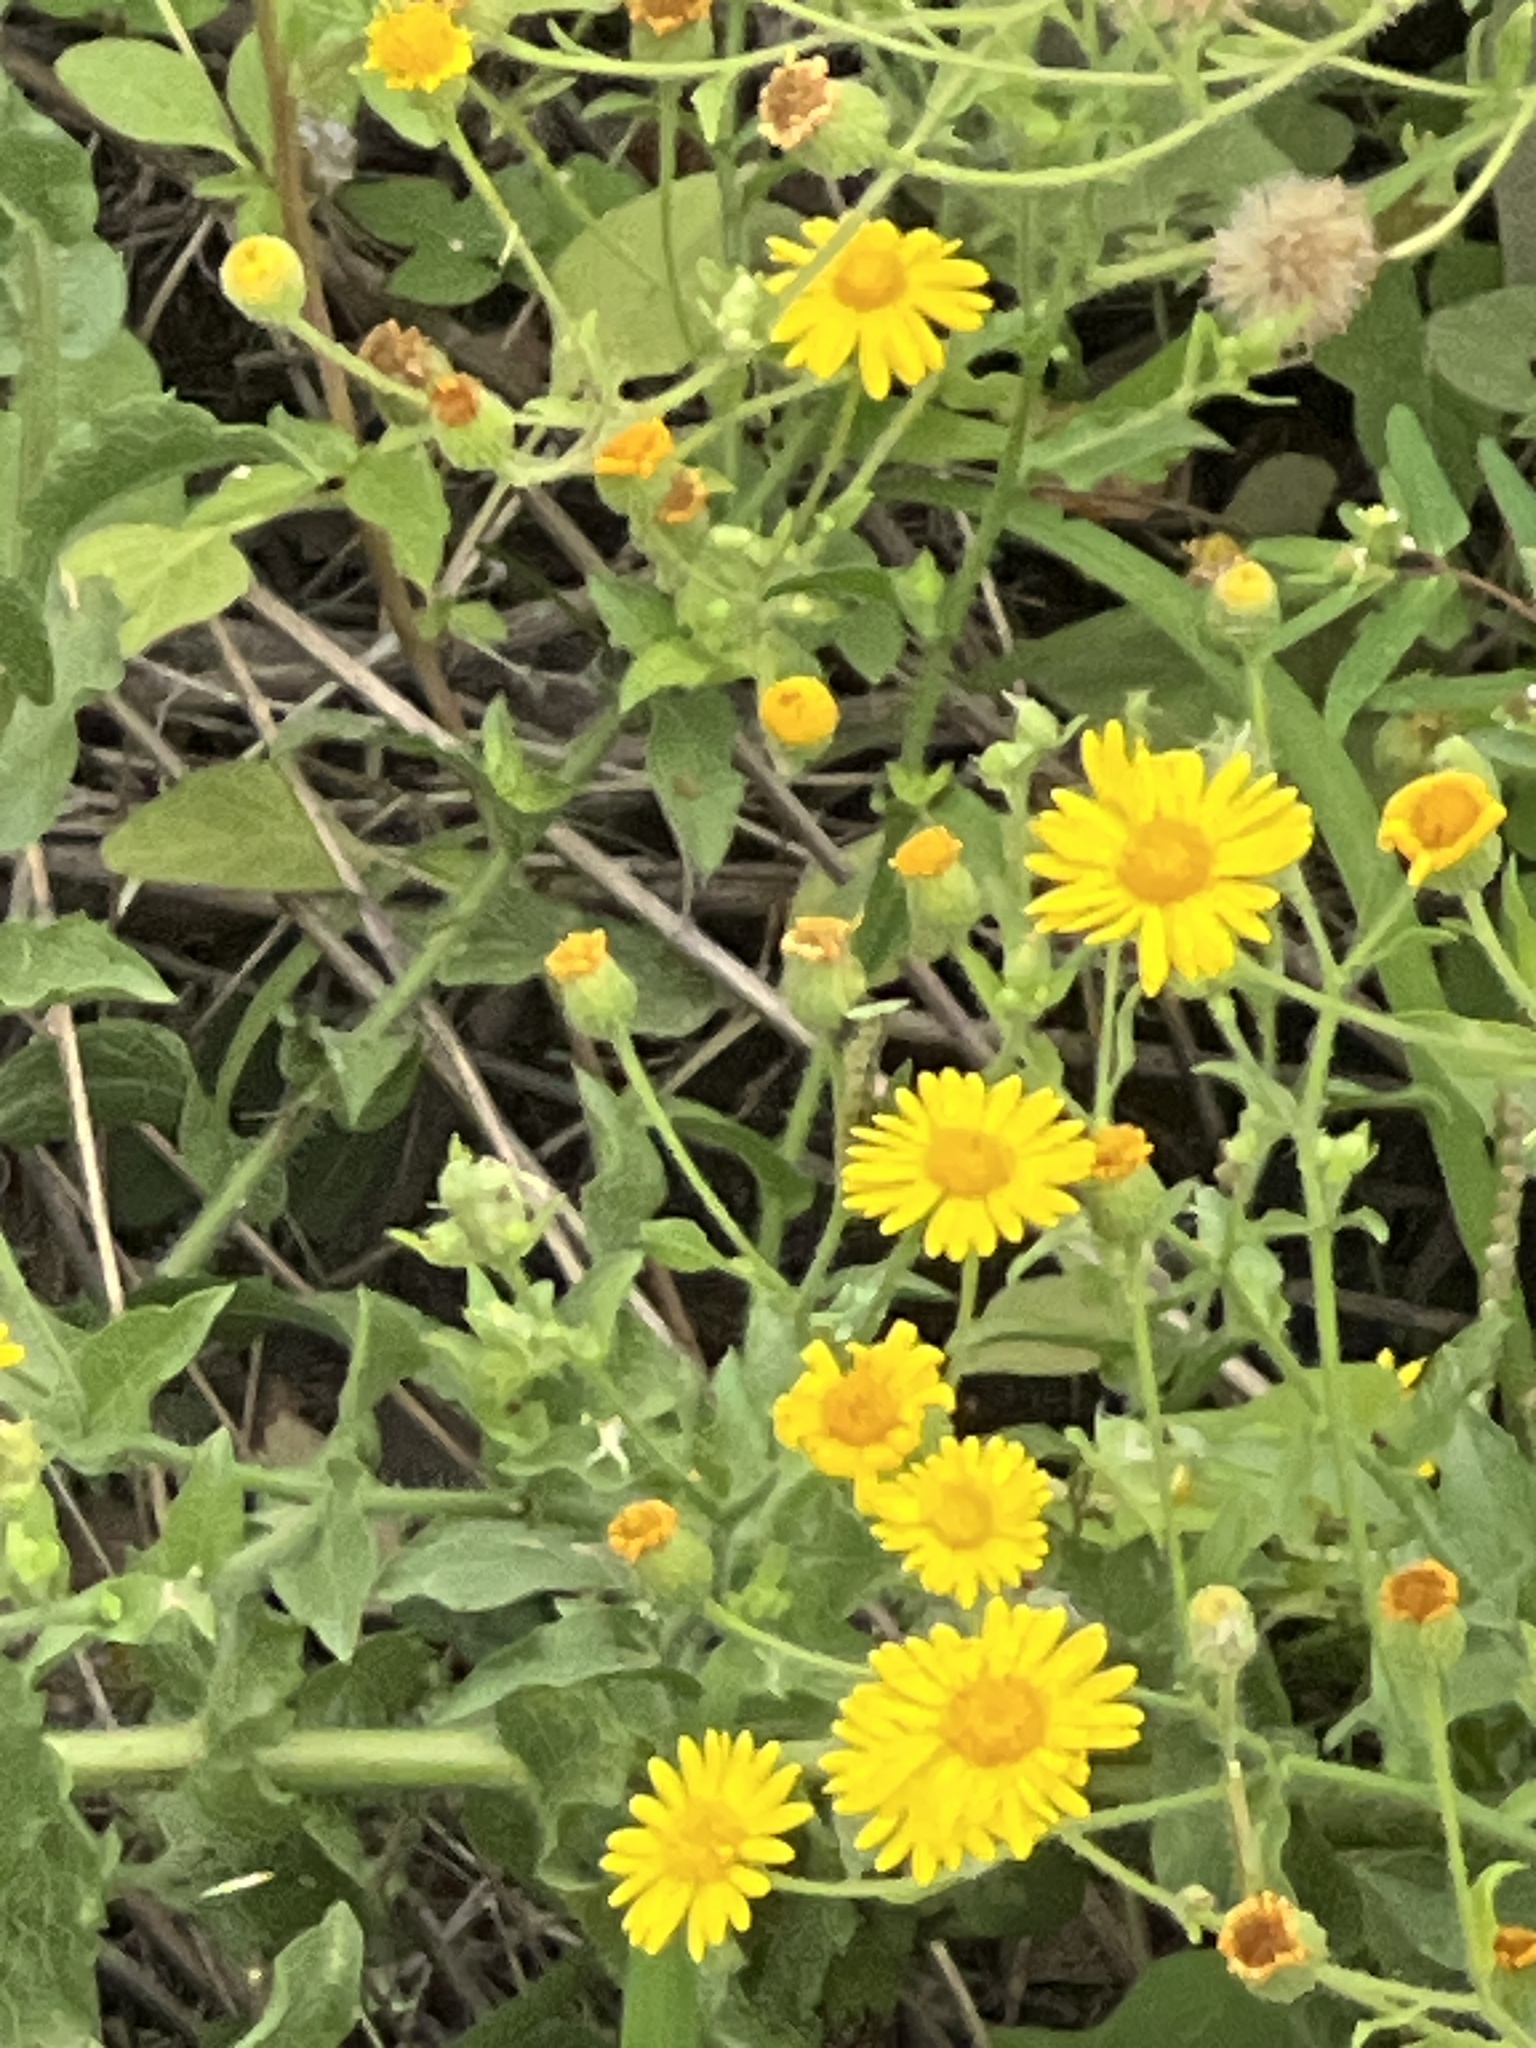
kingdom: Plantae
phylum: Tracheophyta
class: Magnoliopsida
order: Asterales
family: Asteraceae
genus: Heterotheca
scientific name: Heterotheca subaxillaris
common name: Camphorweed
